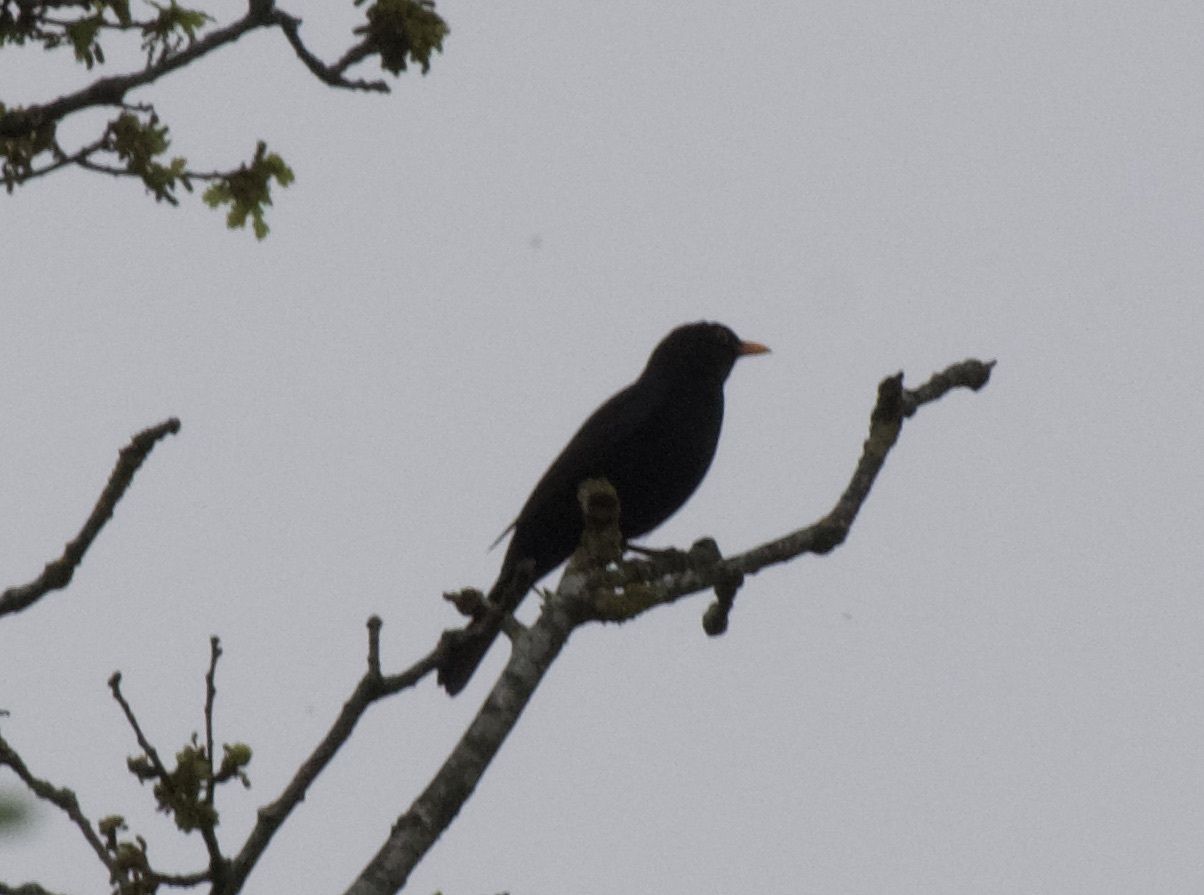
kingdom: Animalia
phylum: Chordata
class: Aves
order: Passeriformes
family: Turdidae
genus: Turdus
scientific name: Turdus merula
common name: Common blackbird
